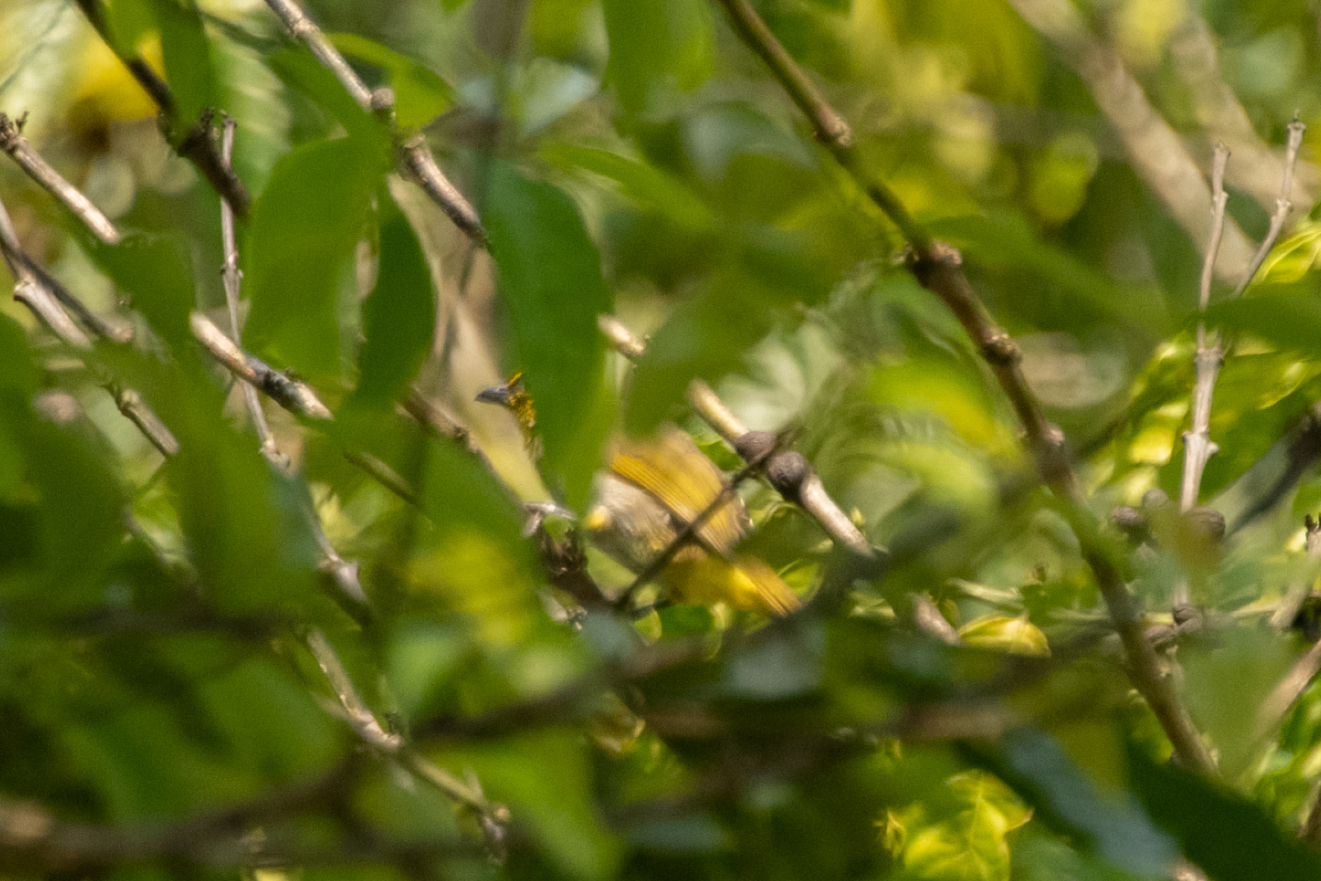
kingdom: Animalia
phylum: Chordata
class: Aves
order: Passeriformes
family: Pycnonotidae
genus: Pycnonotus
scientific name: Pycnonotus finlaysoni
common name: Stripe-throated bulbul
